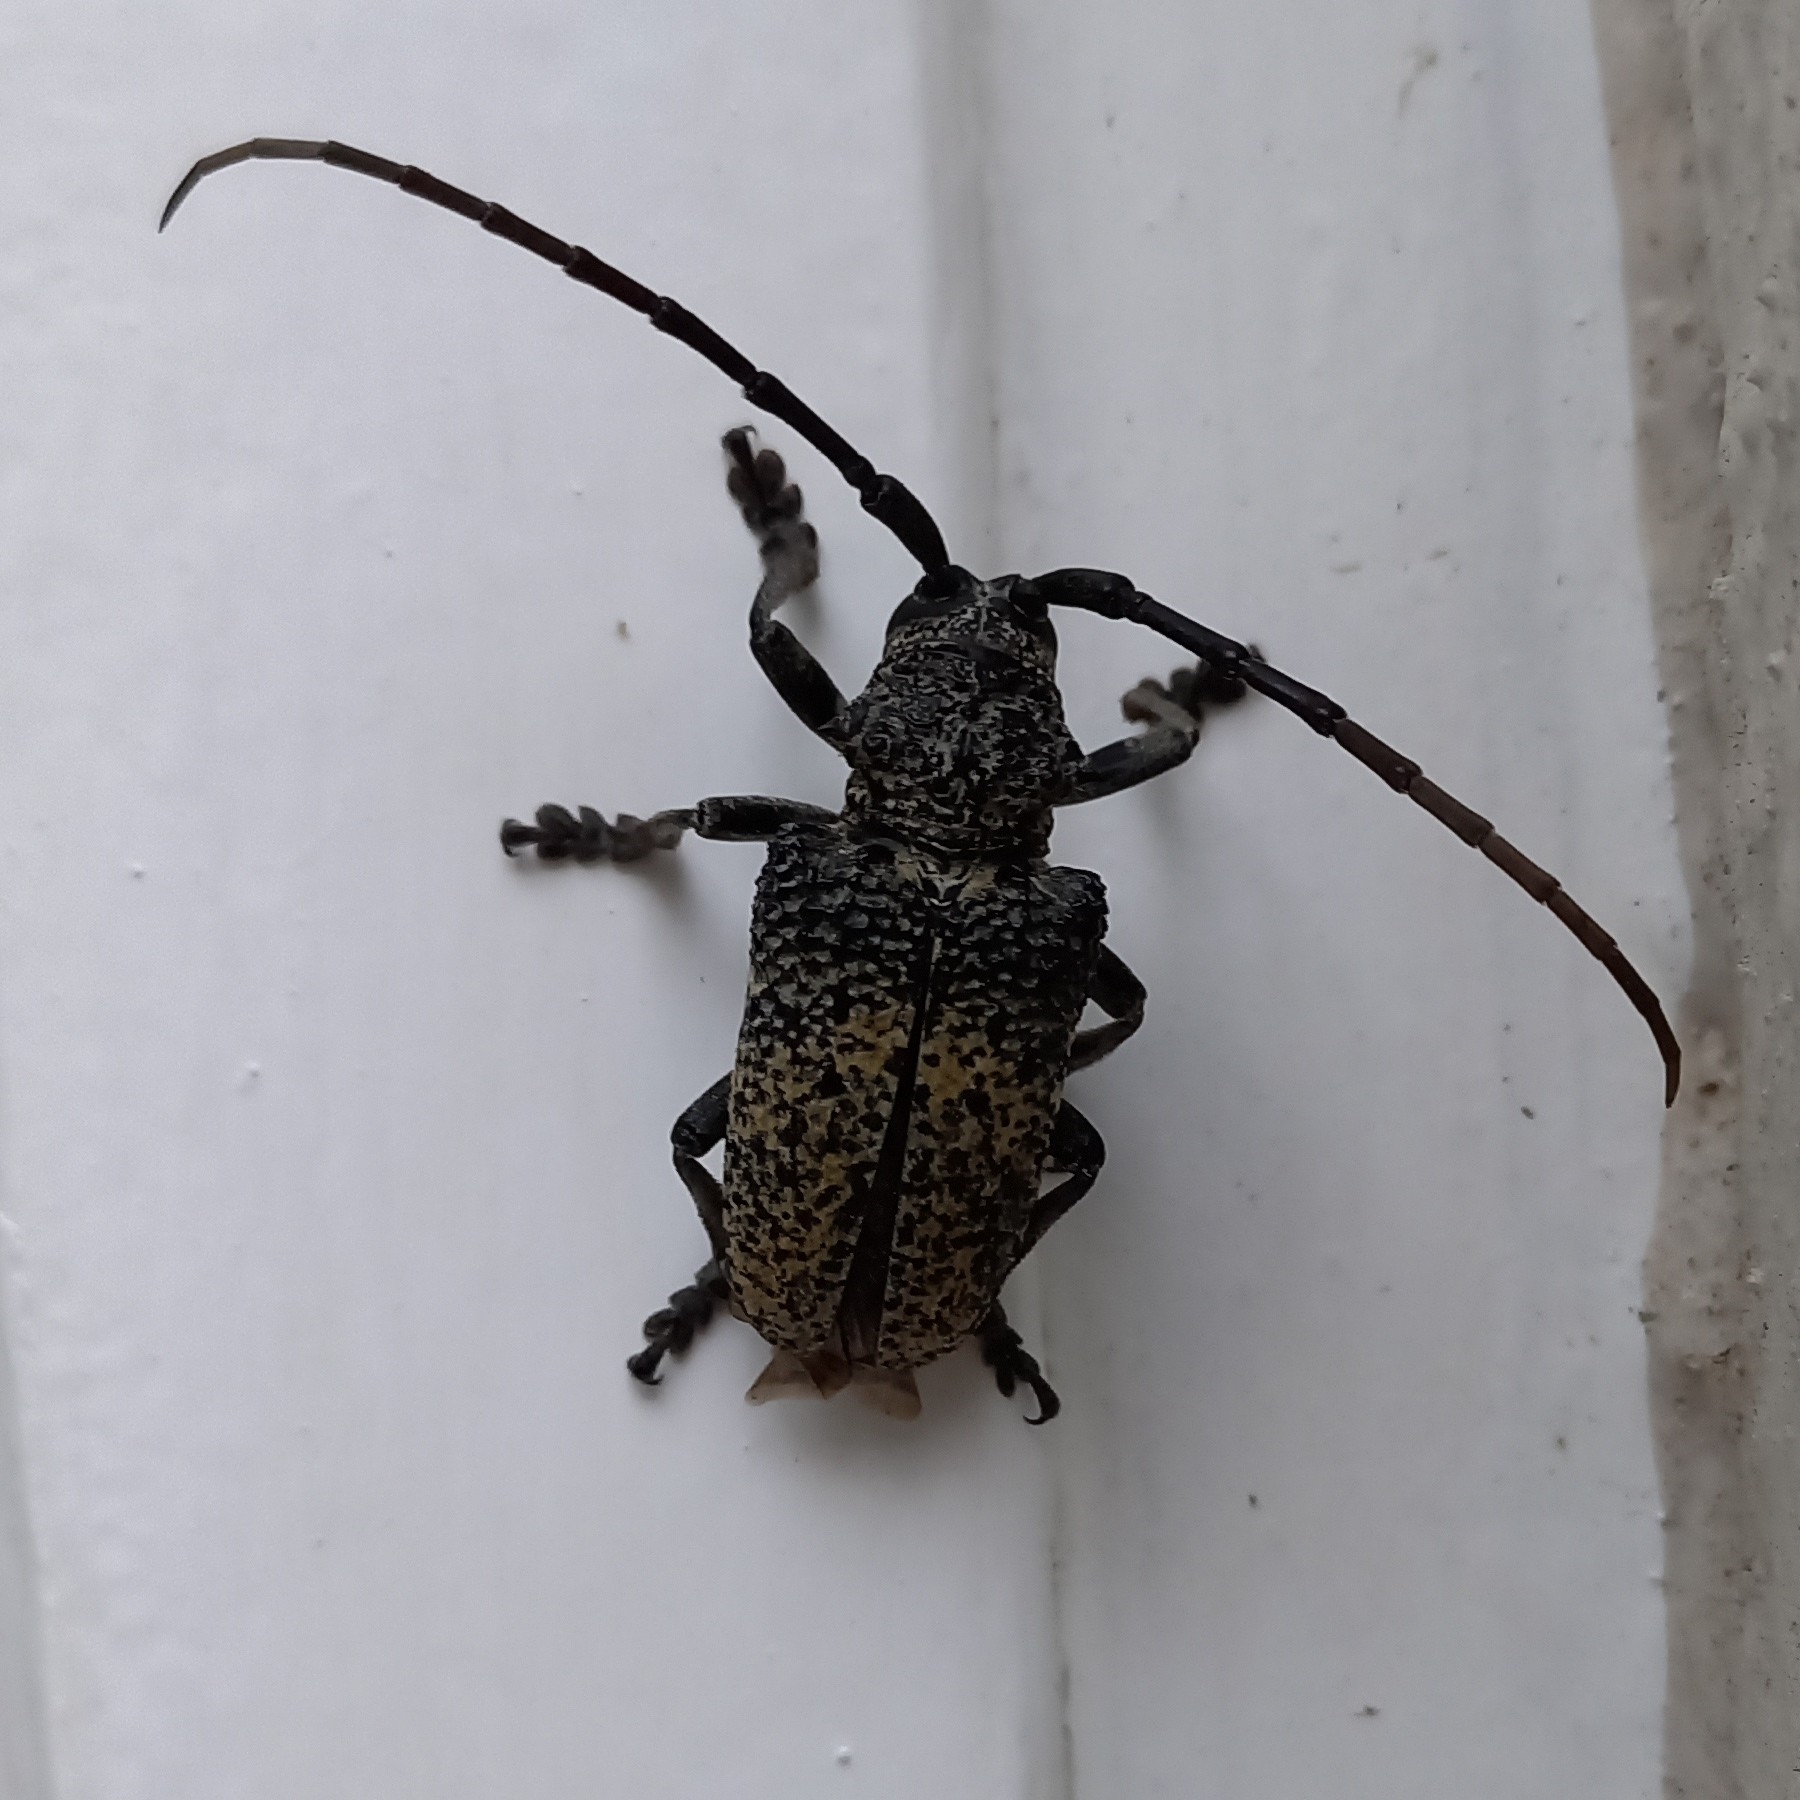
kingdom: Animalia
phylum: Arthropoda
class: Insecta
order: Coleoptera
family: Cerambycidae
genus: Phryneta
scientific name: Phryneta spinator
